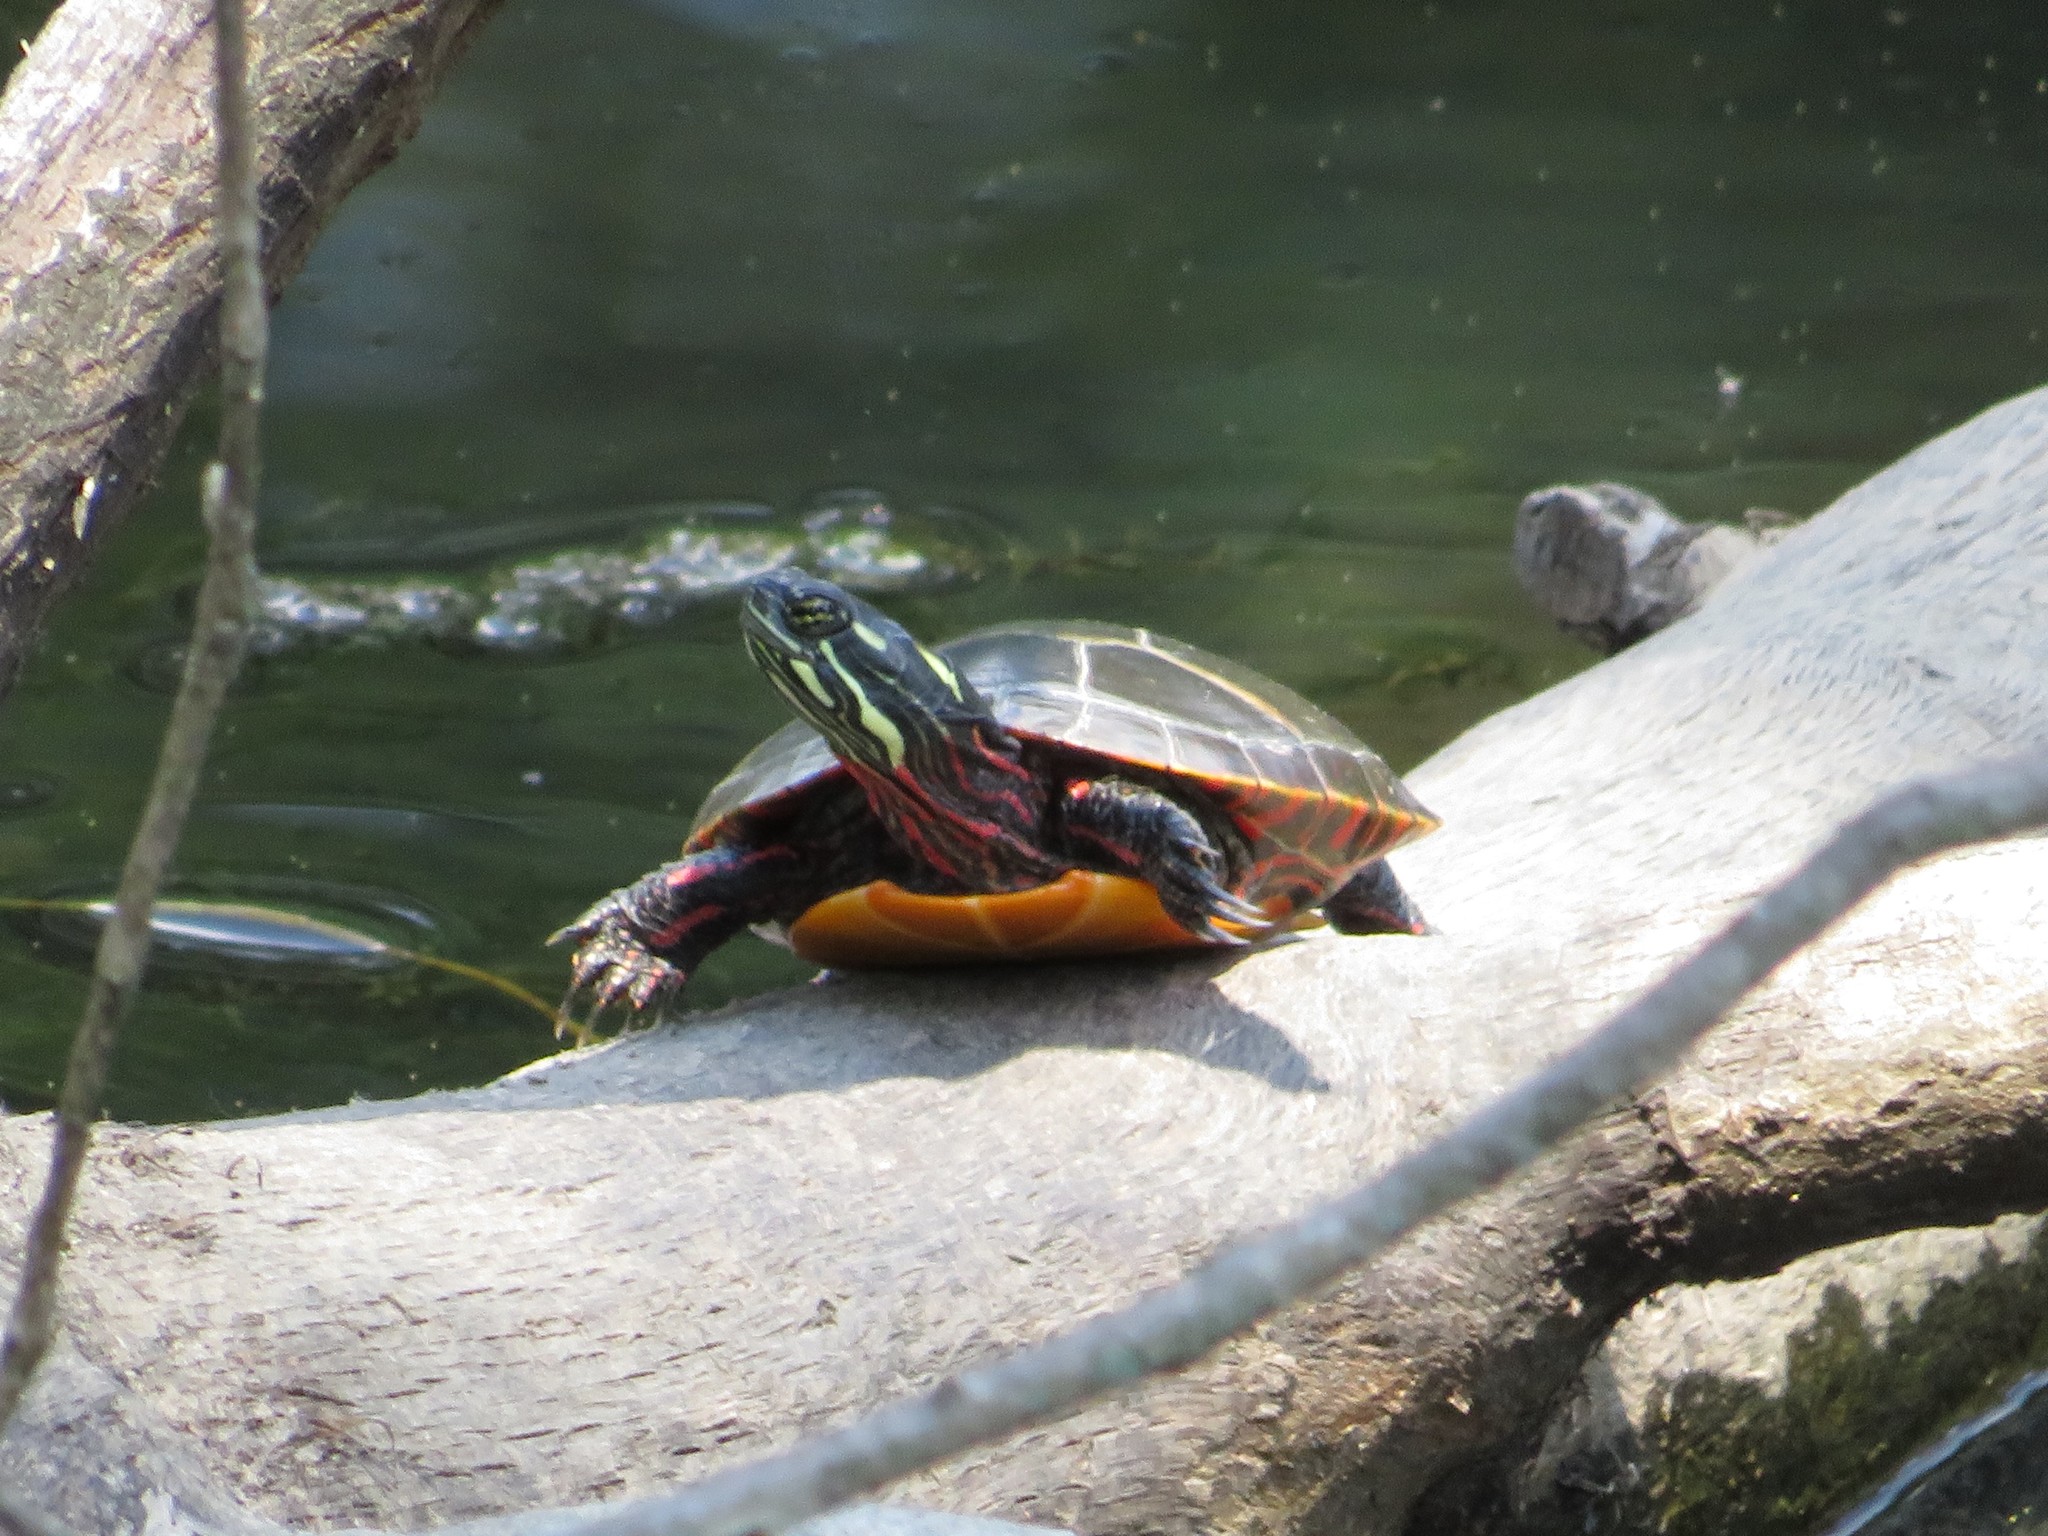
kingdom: Animalia
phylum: Chordata
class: Testudines
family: Emydidae
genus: Chrysemys
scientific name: Chrysemys picta
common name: Painted turtle
